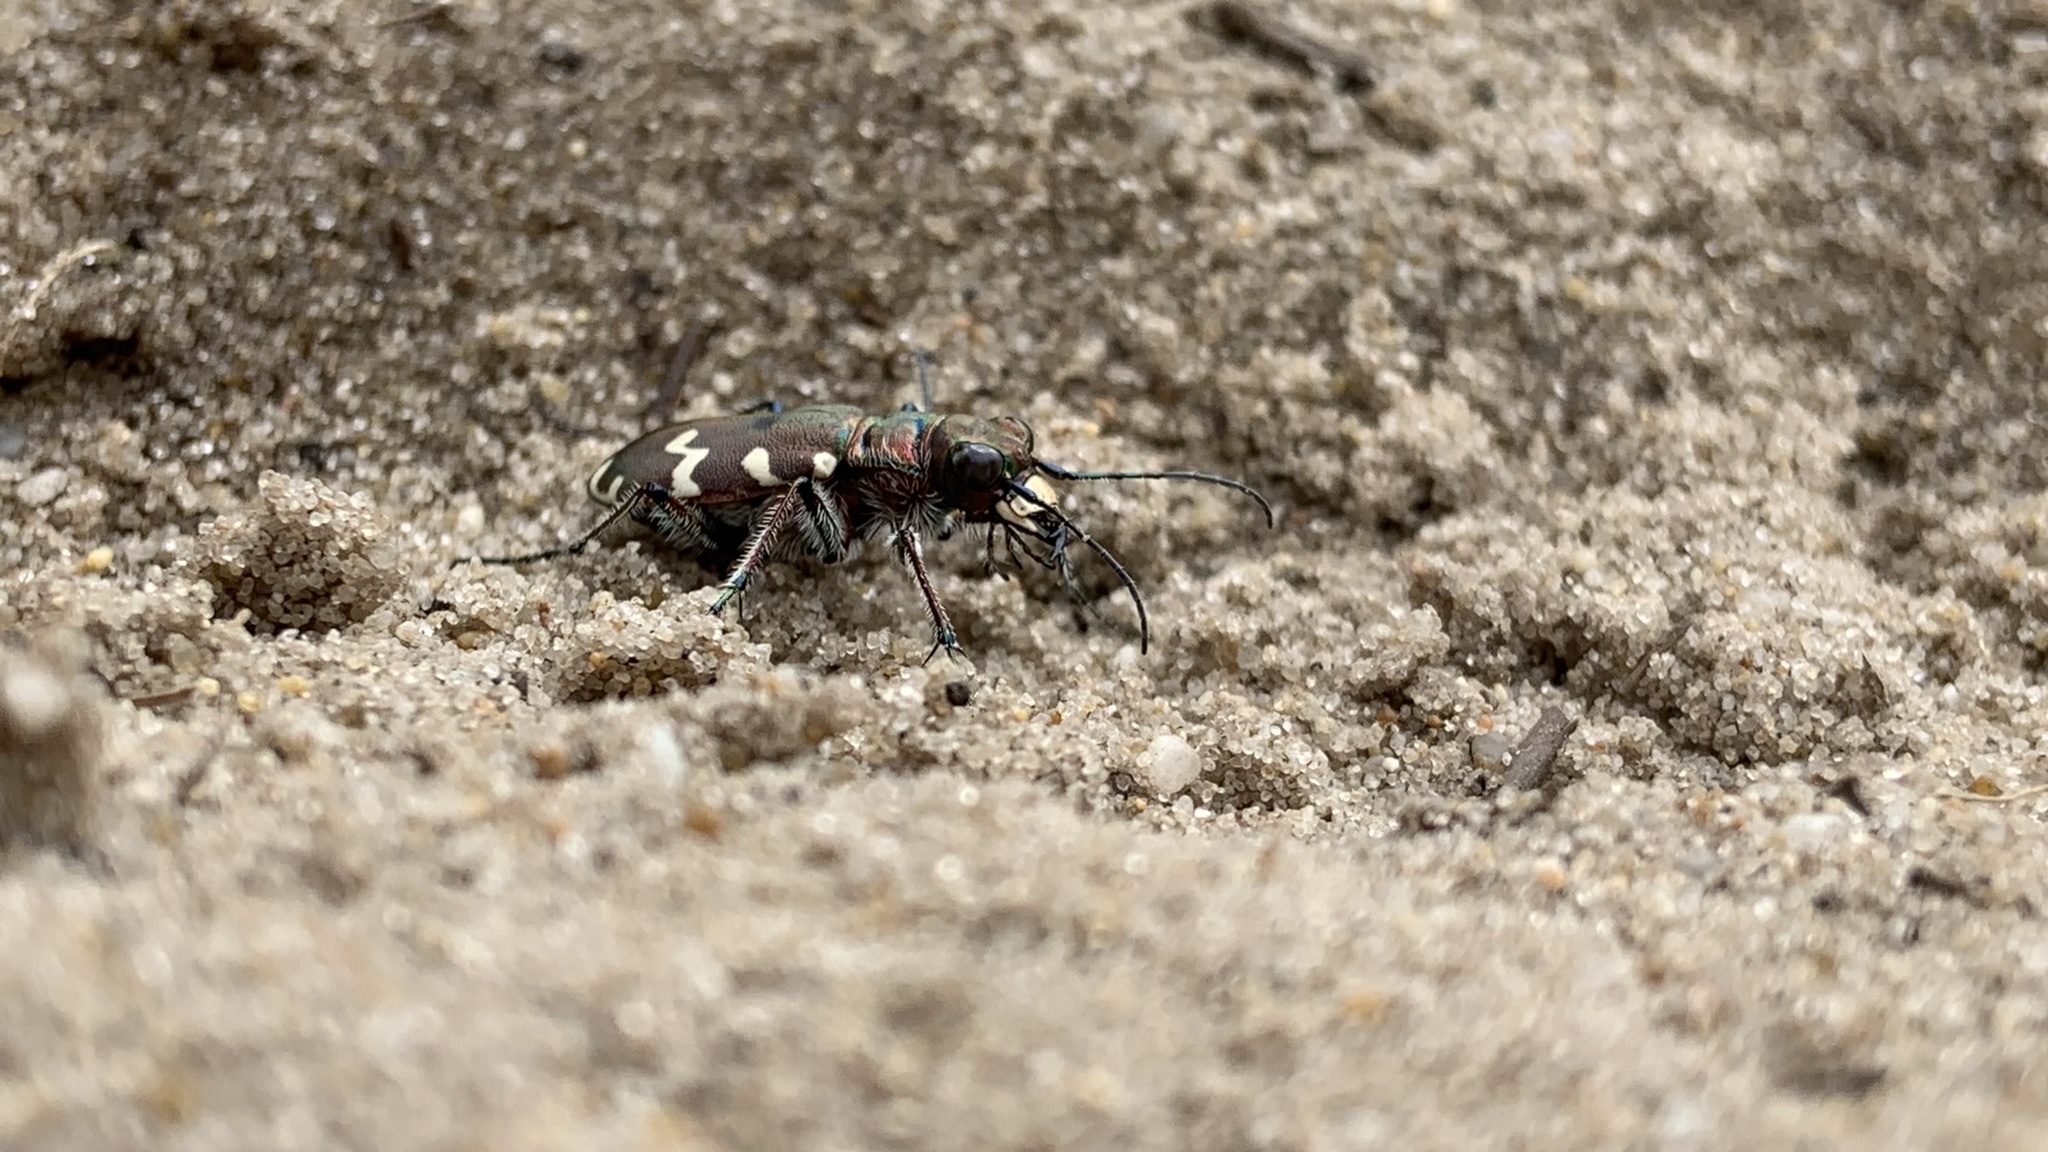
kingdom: Animalia
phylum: Arthropoda
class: Insecta
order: Coleoptera
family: Carabidae
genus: Cicindela
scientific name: Cicindela hybrida
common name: Northern dune tiger beetle
